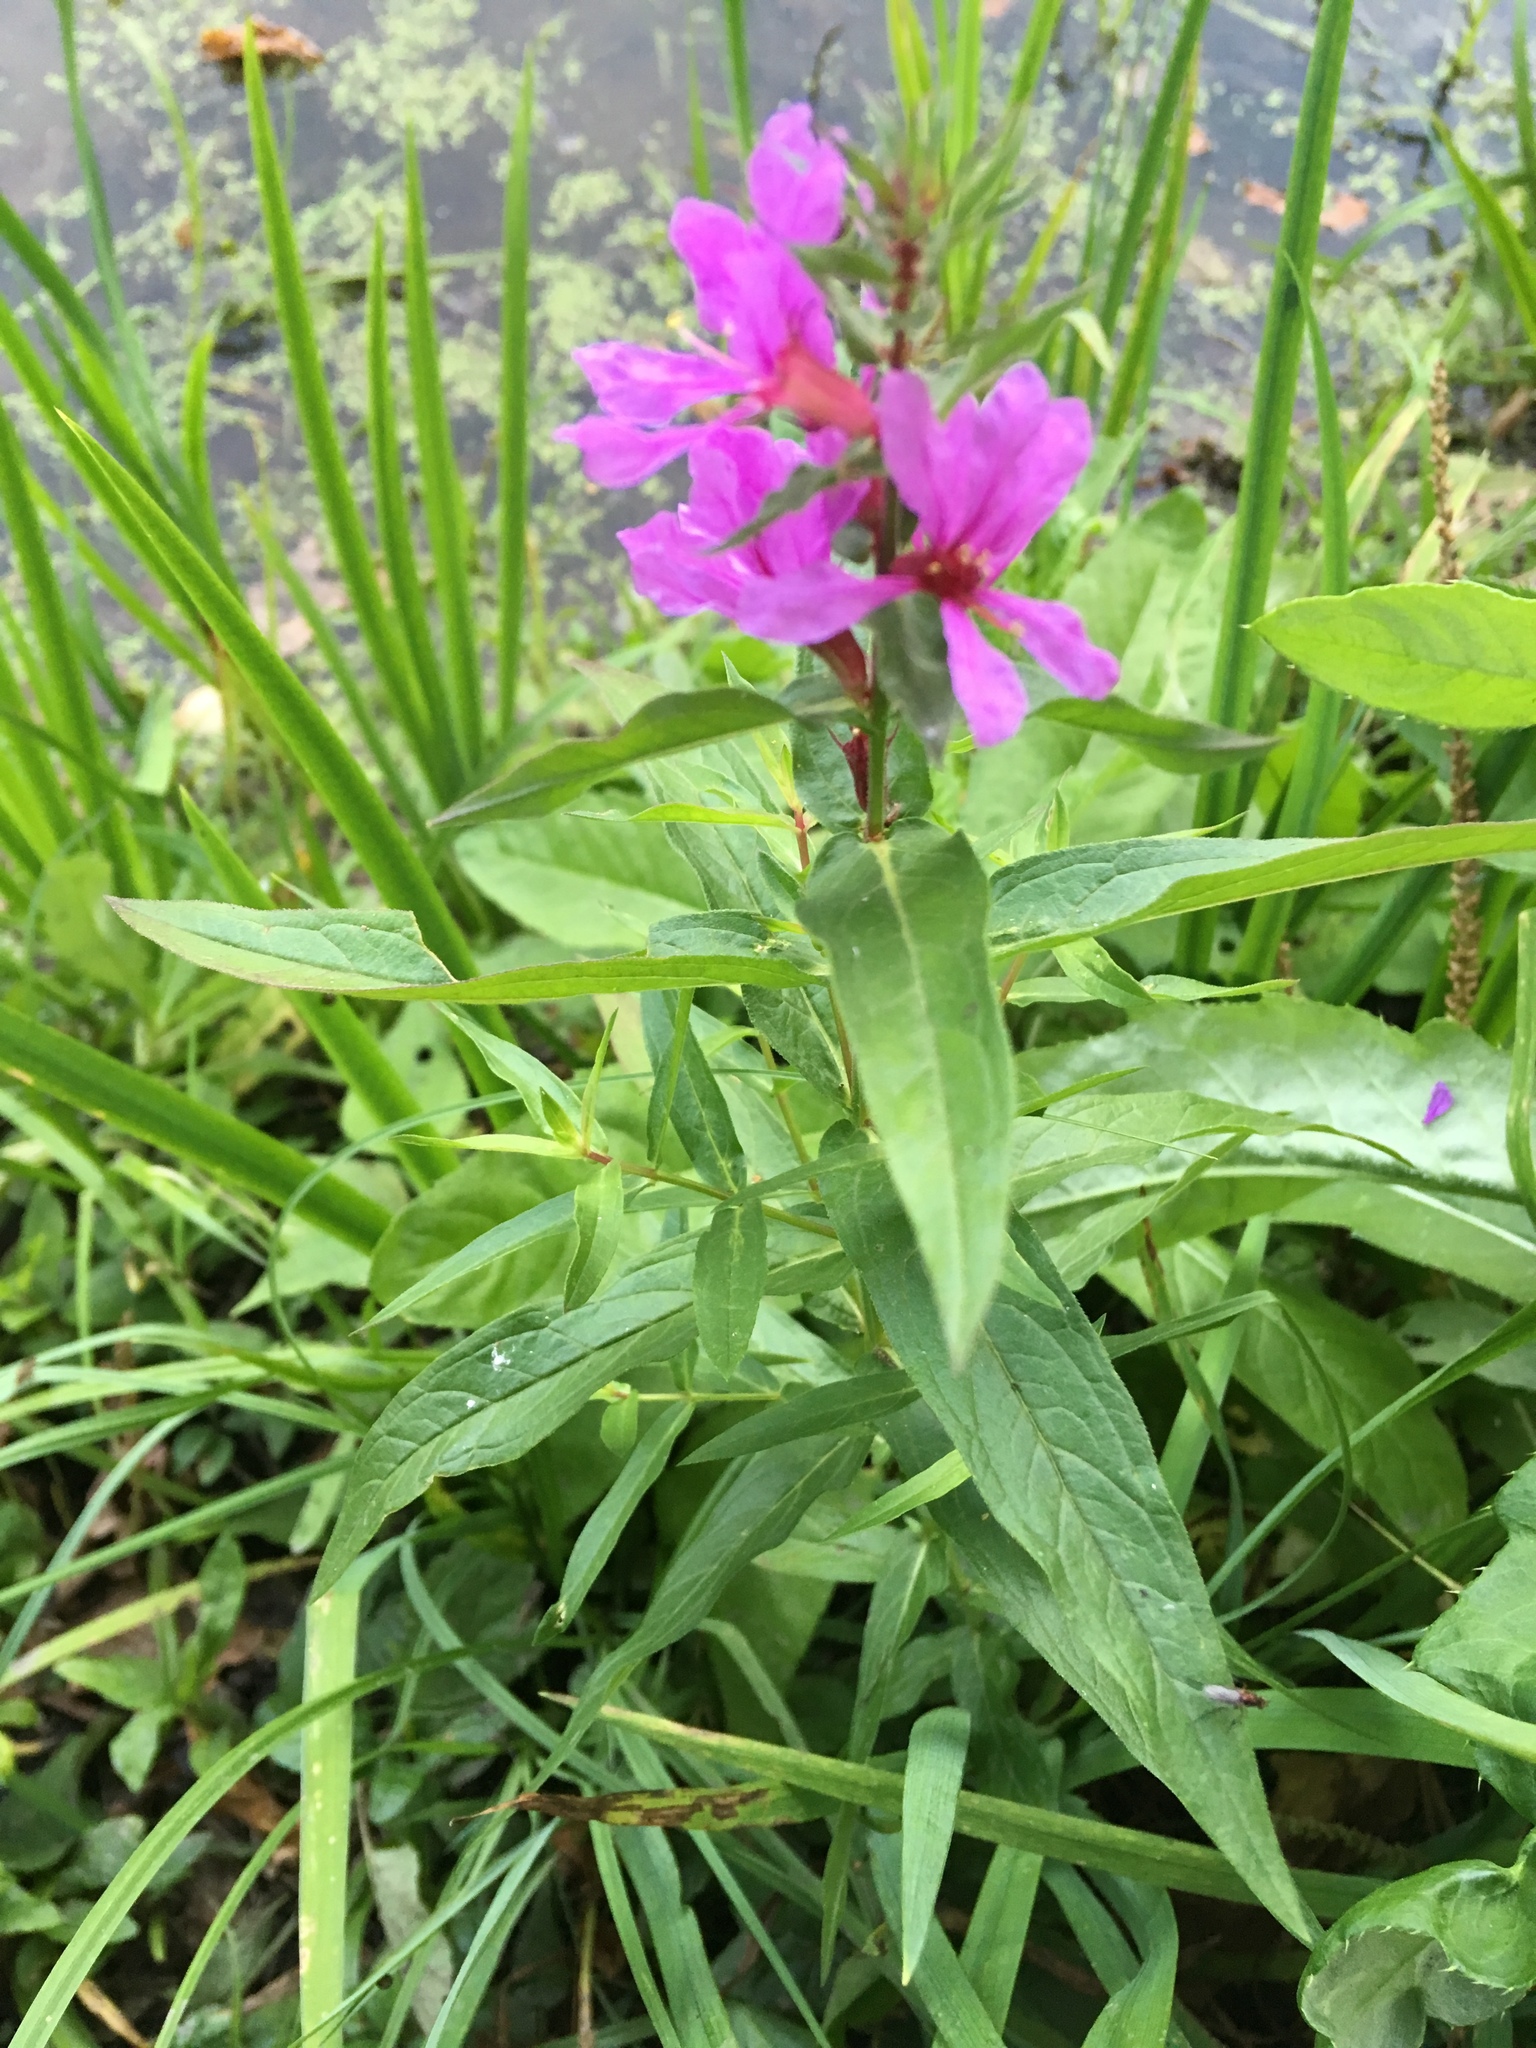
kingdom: Plantae
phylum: Tracheophyta
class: Magnoliopsida
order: Myrtales
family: Lythraceae
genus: Lythrum
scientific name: Lythrum salicaria
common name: Purple loosestrife
